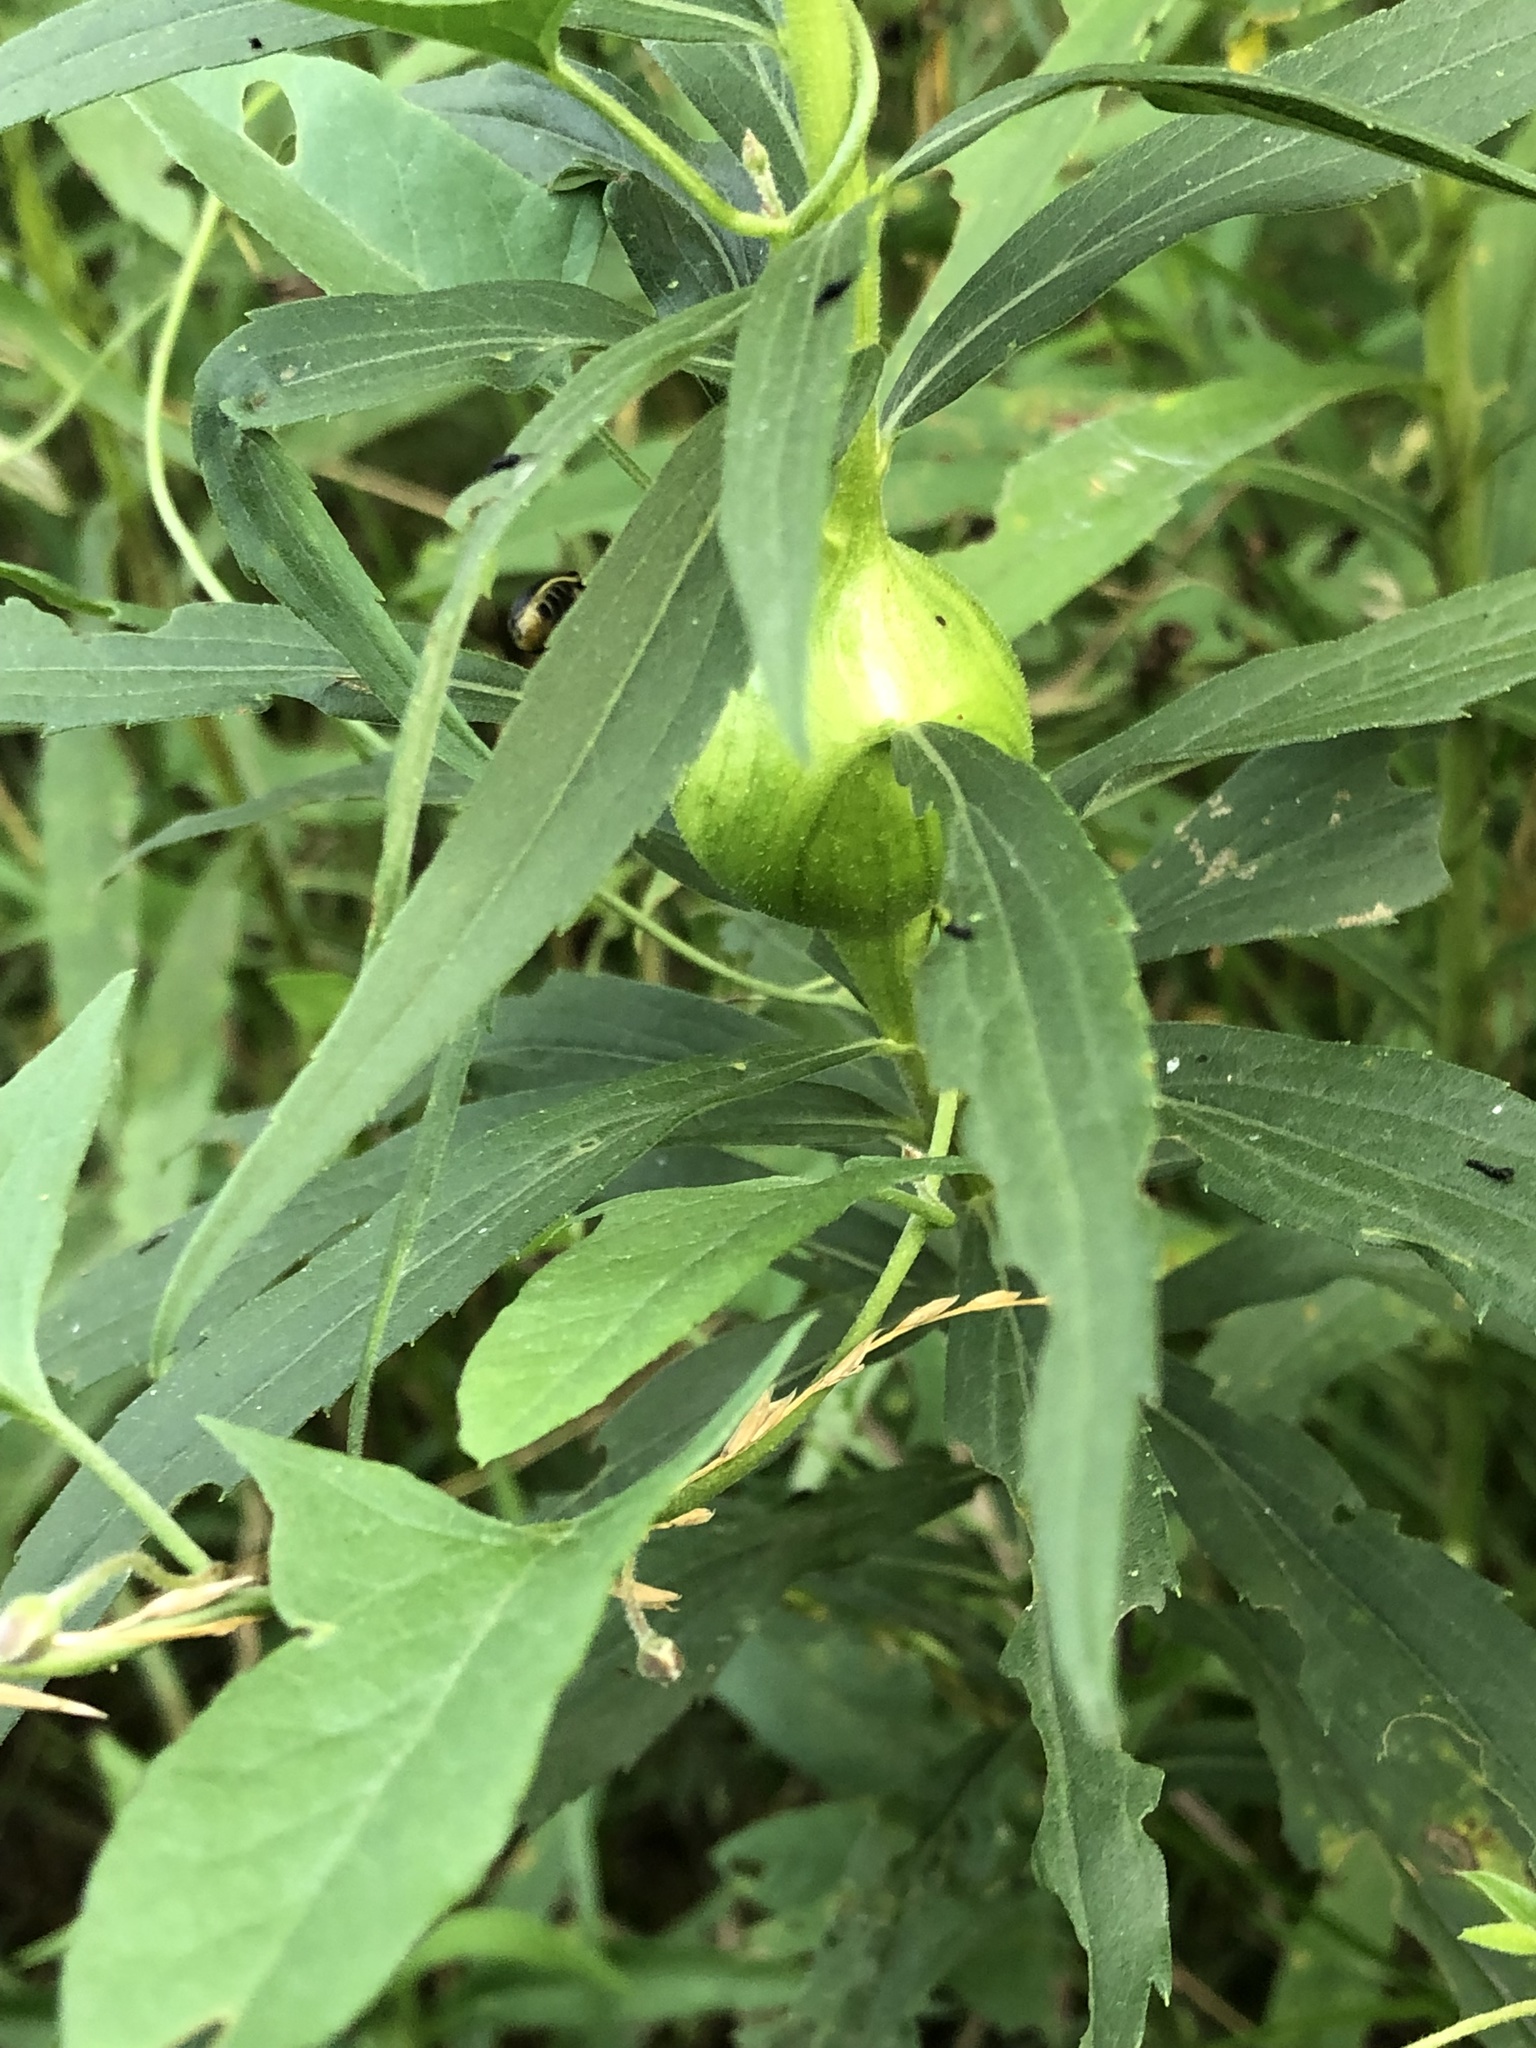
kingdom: Animalia
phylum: Arthropoda
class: Insecta
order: Diptera
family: Tephritidae
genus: Eurosta
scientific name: Eurosta solidaginis
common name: Goldenrod gall fly
